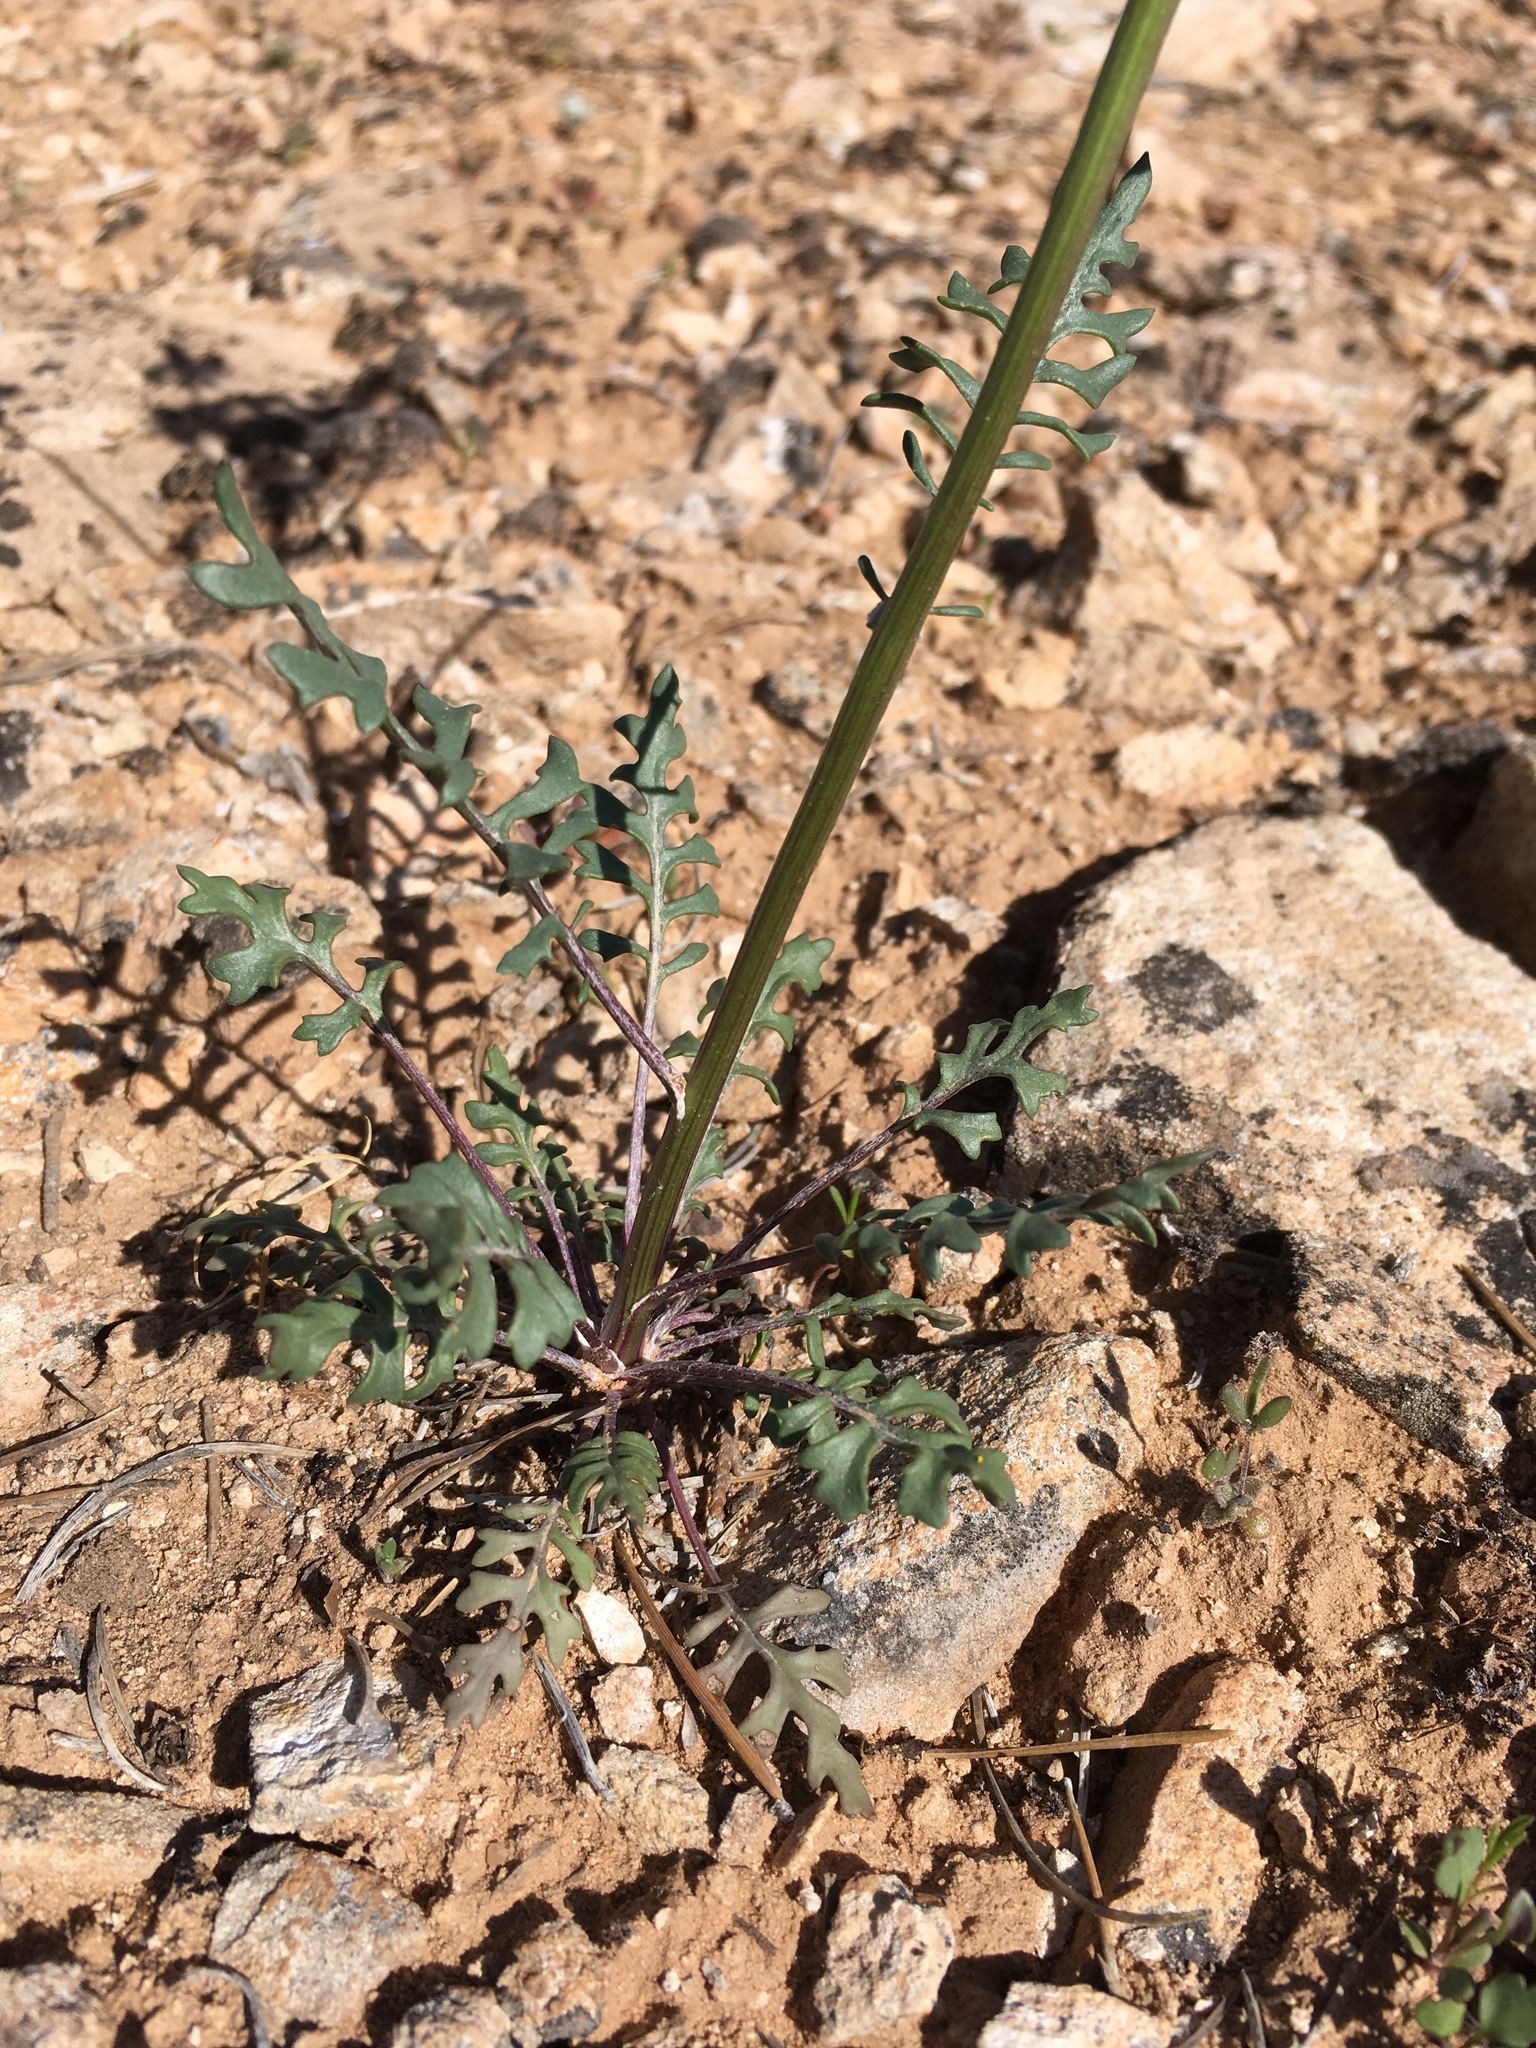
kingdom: Plantae
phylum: Tracheophyta
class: Magnoliopsida
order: Asterales
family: Asteraceae
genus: Packera
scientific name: Packera multilobata
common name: Lobe-leaf groundsel
